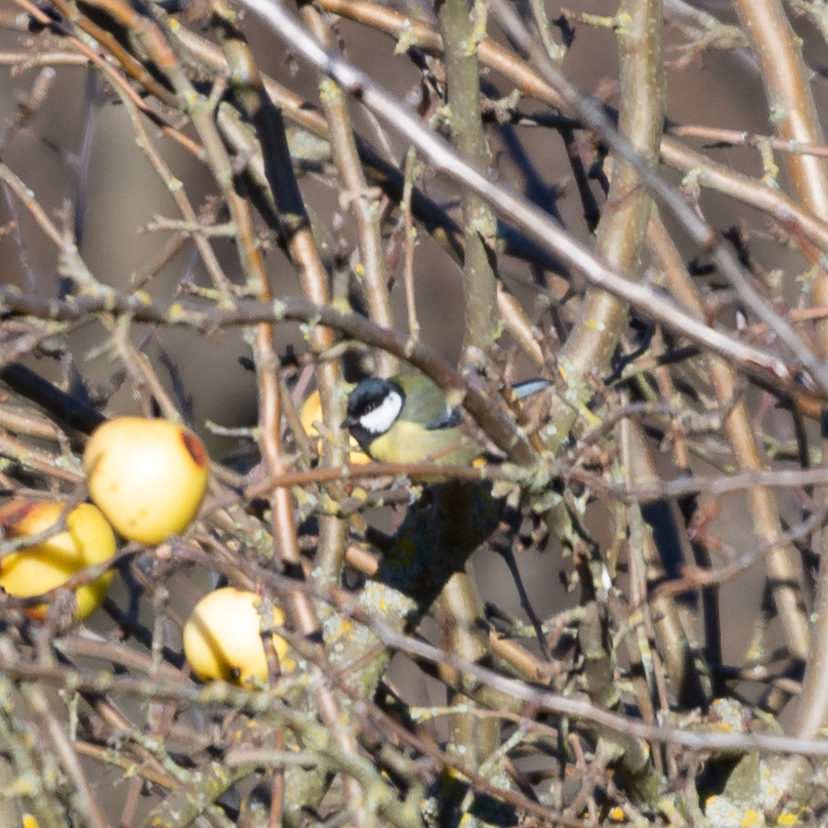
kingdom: Animalia
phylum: Chordata
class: Aves
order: Passeriformes
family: Paridae
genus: Parus
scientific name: Parus major
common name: Great tit
